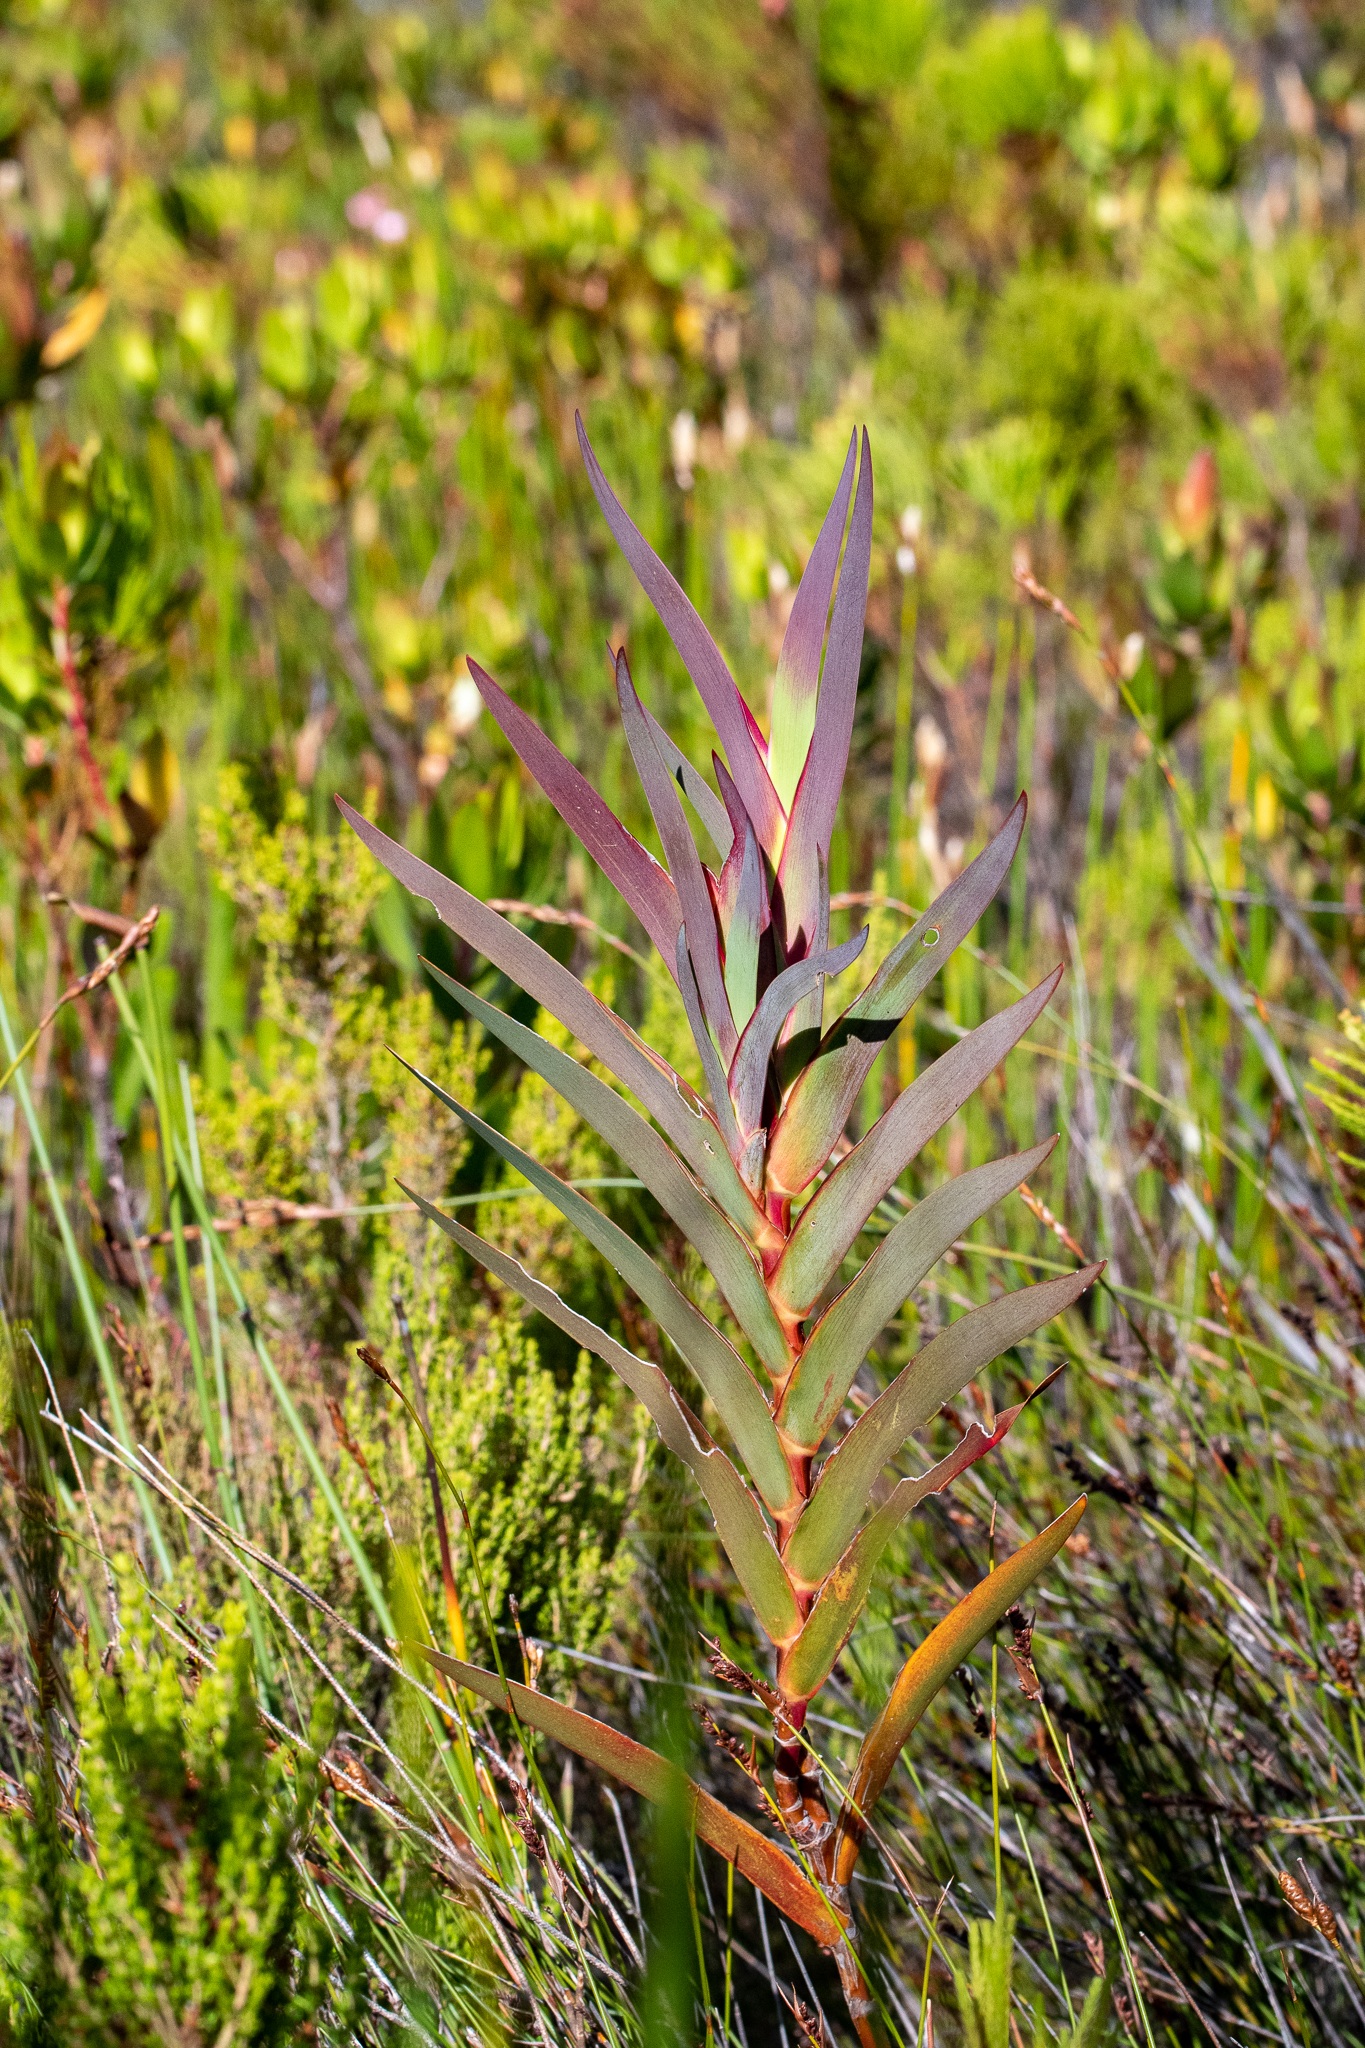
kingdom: Plantae
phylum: Tracheophyta
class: Liliopsida
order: Asparagales
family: Iridaceae
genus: Klattia
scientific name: Klattia stokoei
